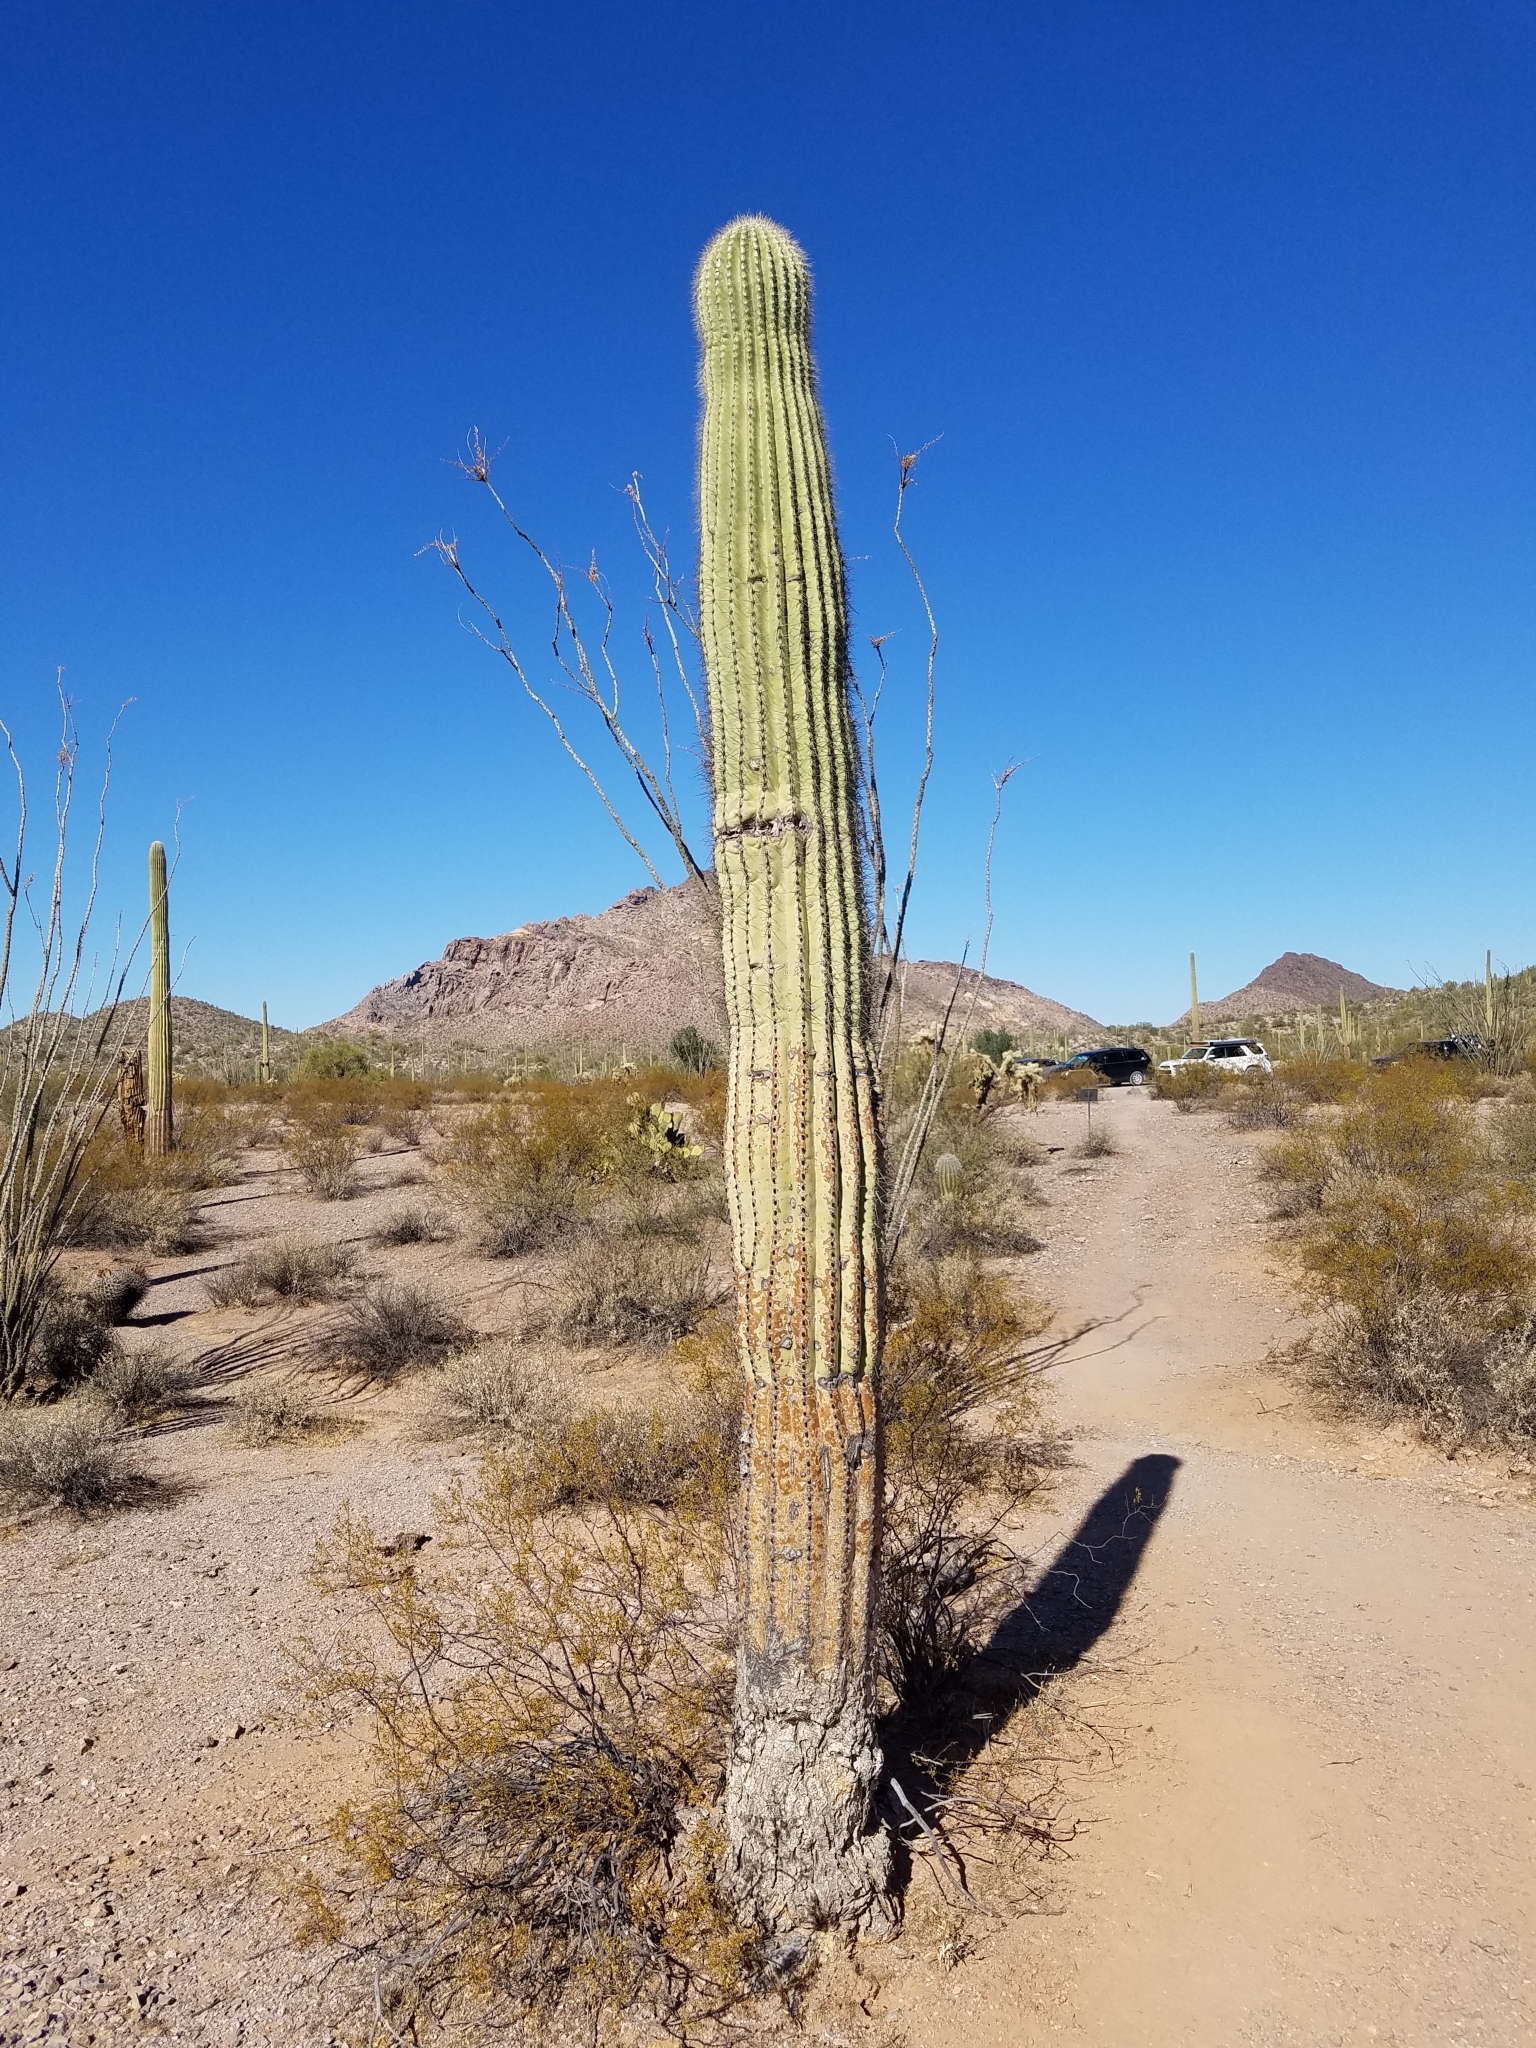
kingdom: Plantae
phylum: Tracheophyta
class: Magnoliopsida
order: Caryophyllales
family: Cactaceae
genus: Carnegiea
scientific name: Carnegiea gigantea
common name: Saguaro
